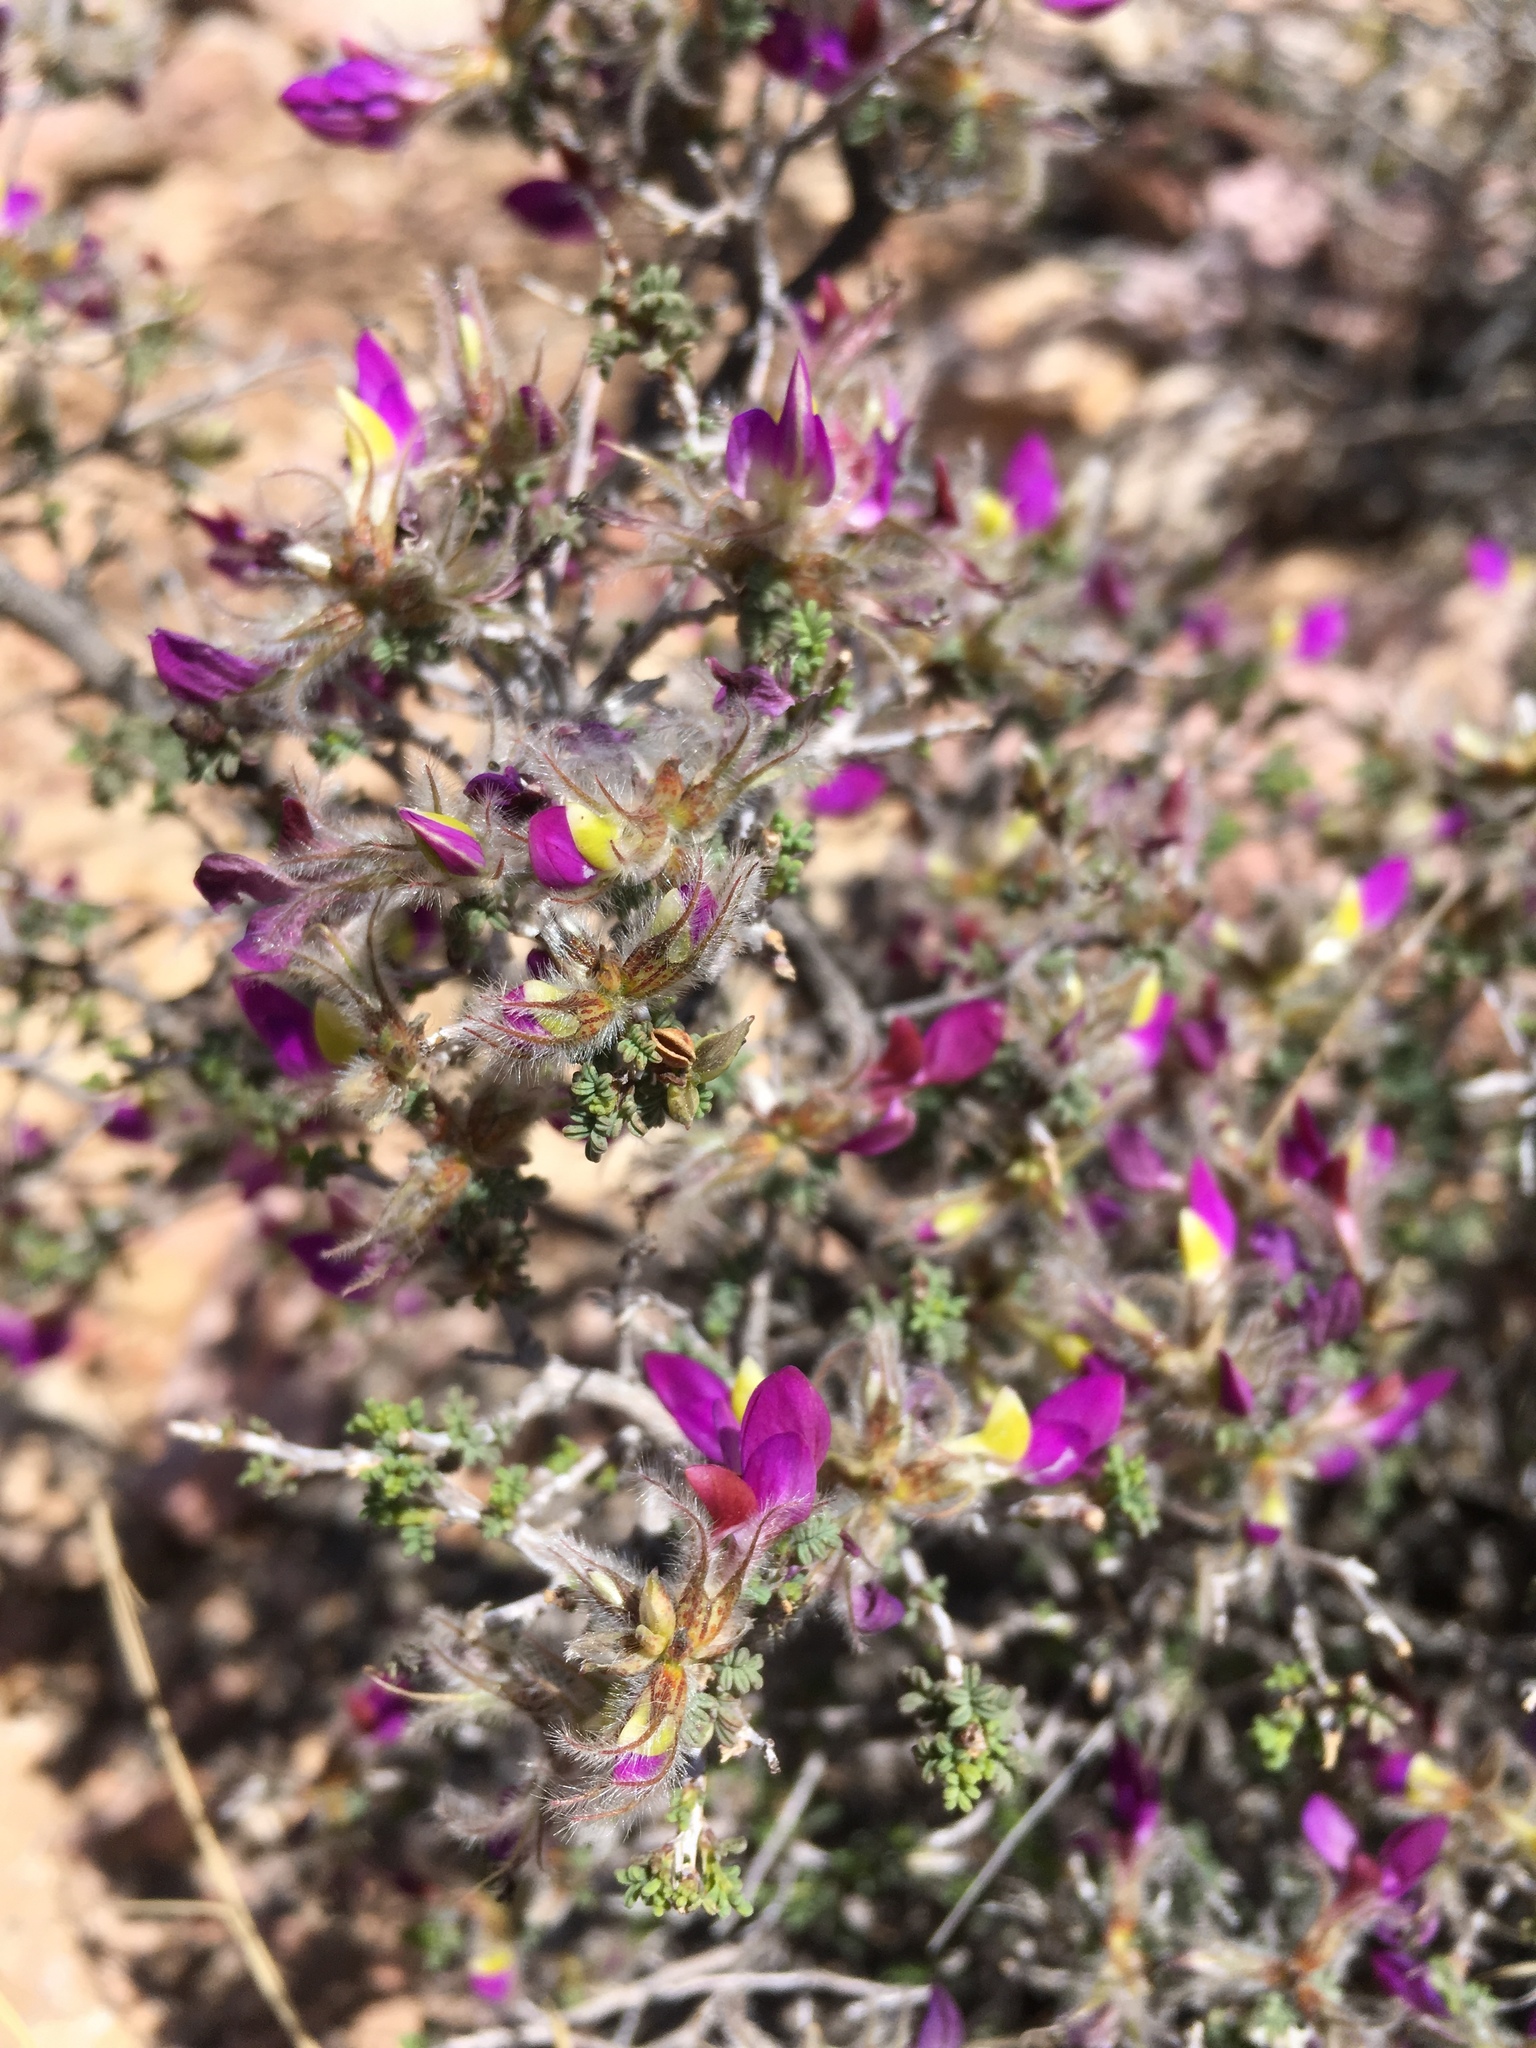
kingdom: Plantae
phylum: Tracheophyta
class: Magnoliopsida
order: Fabales
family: Fabaceae
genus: Dalea
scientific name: Dalea formosa
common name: Feather-plume dalea
